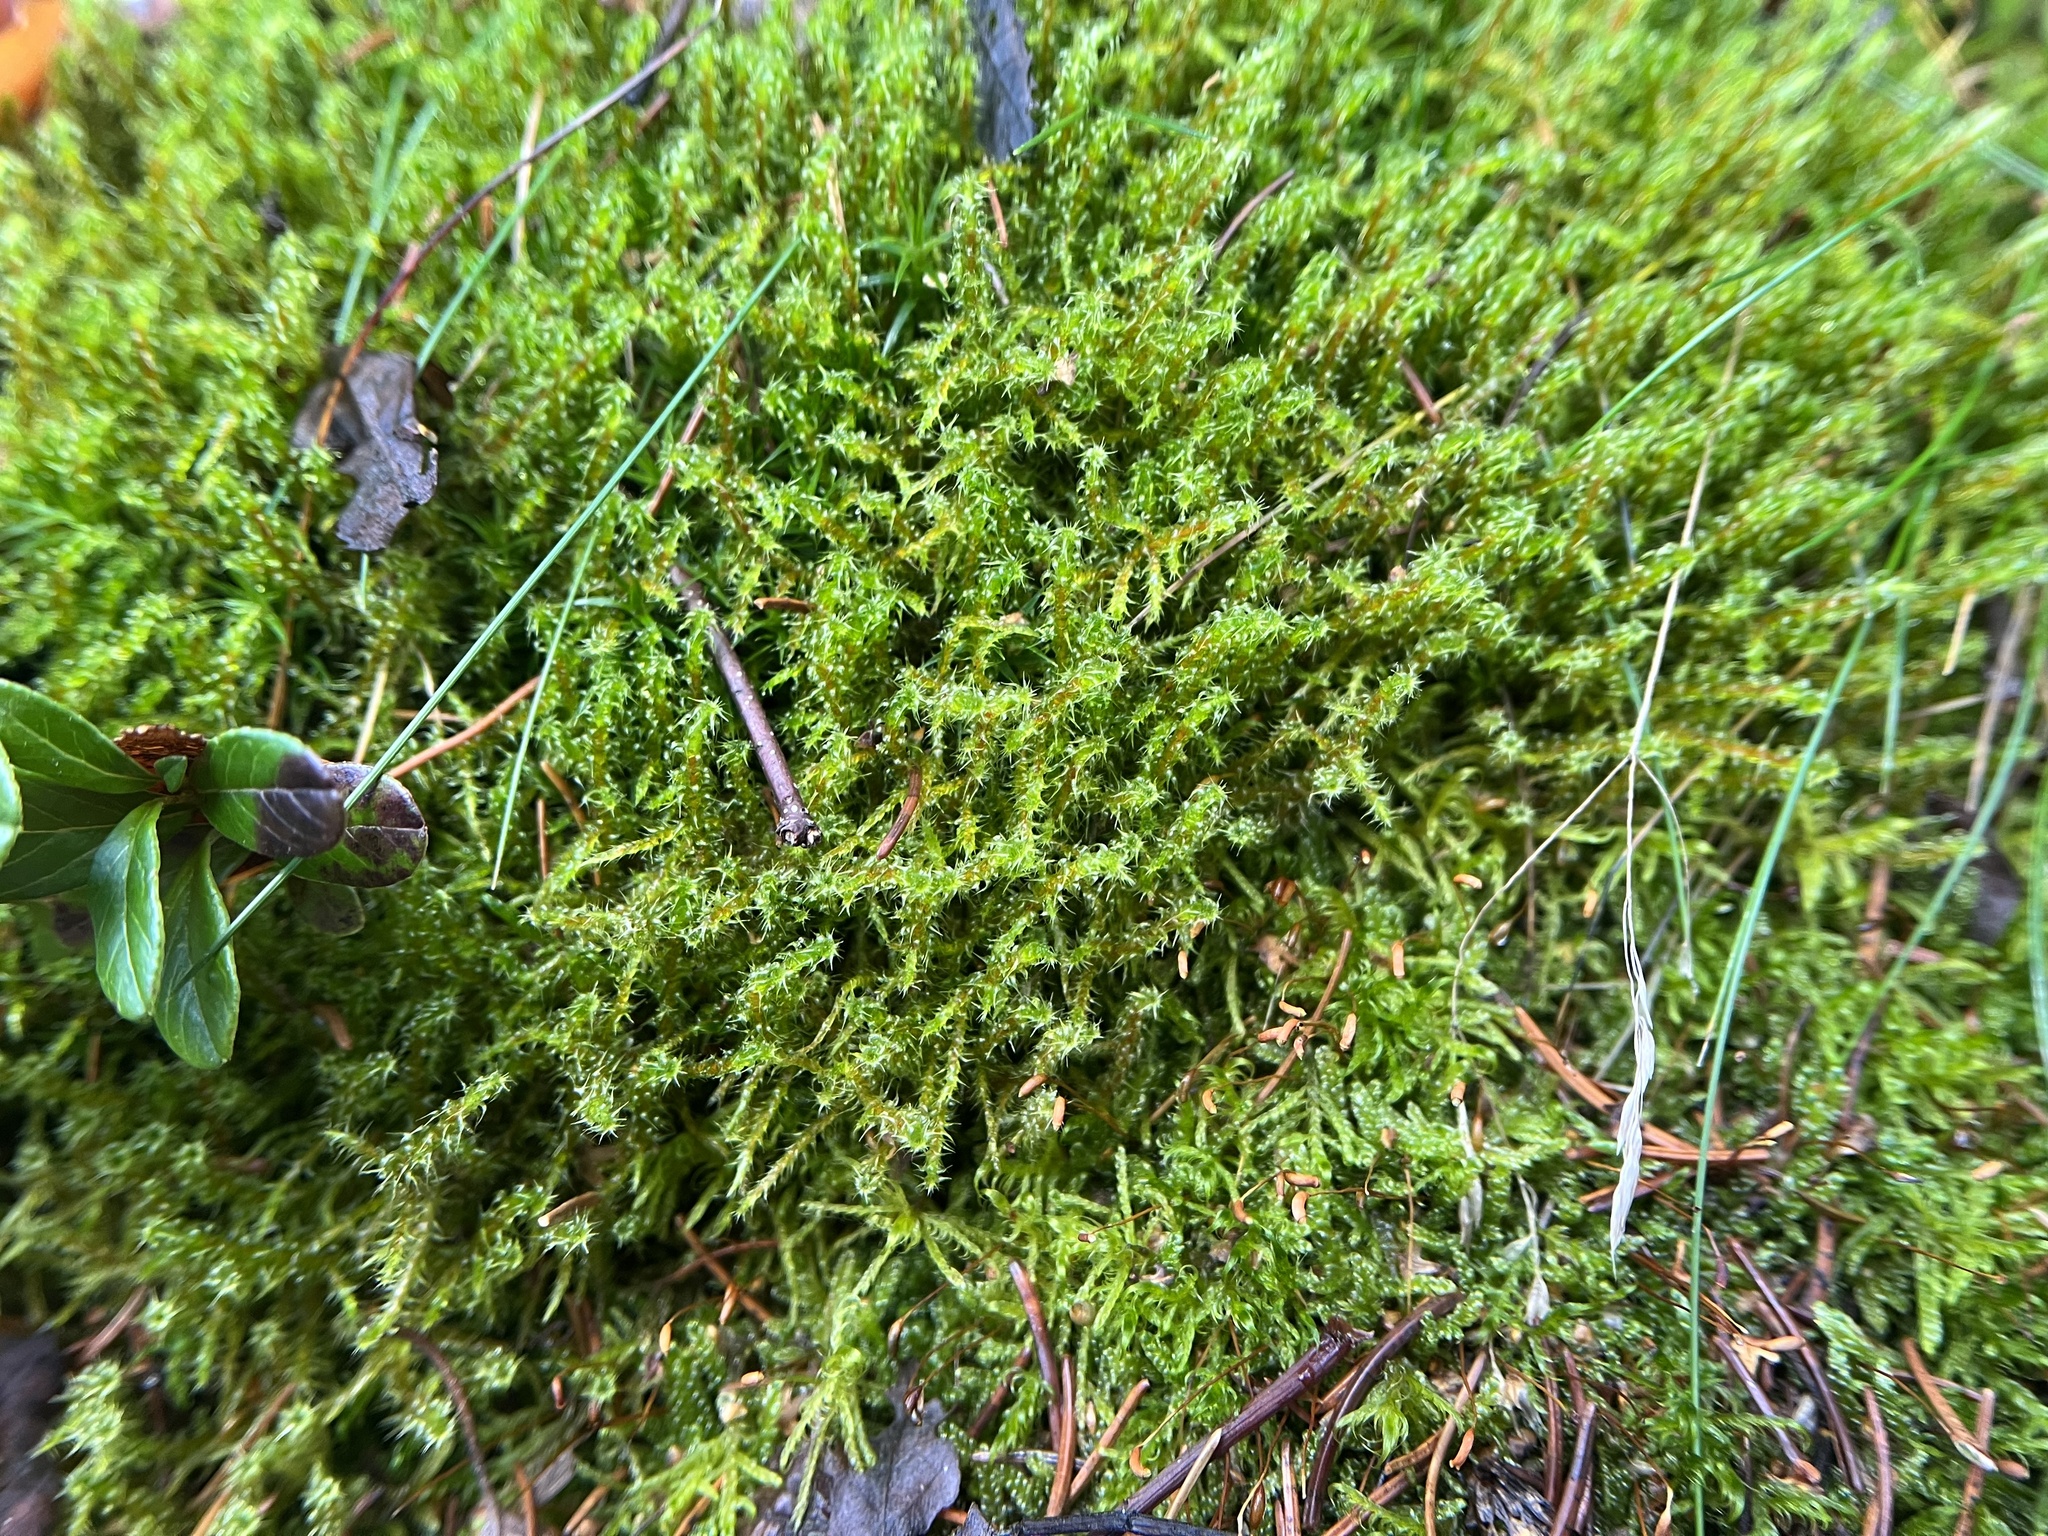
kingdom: Plantae
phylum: Bryophyta
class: Bryopsida
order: Hypnales
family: Hylocomiaceae
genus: Rhytidiadelphus
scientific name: Rhytidiadelphus squarrosus
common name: Springy turf-moss
